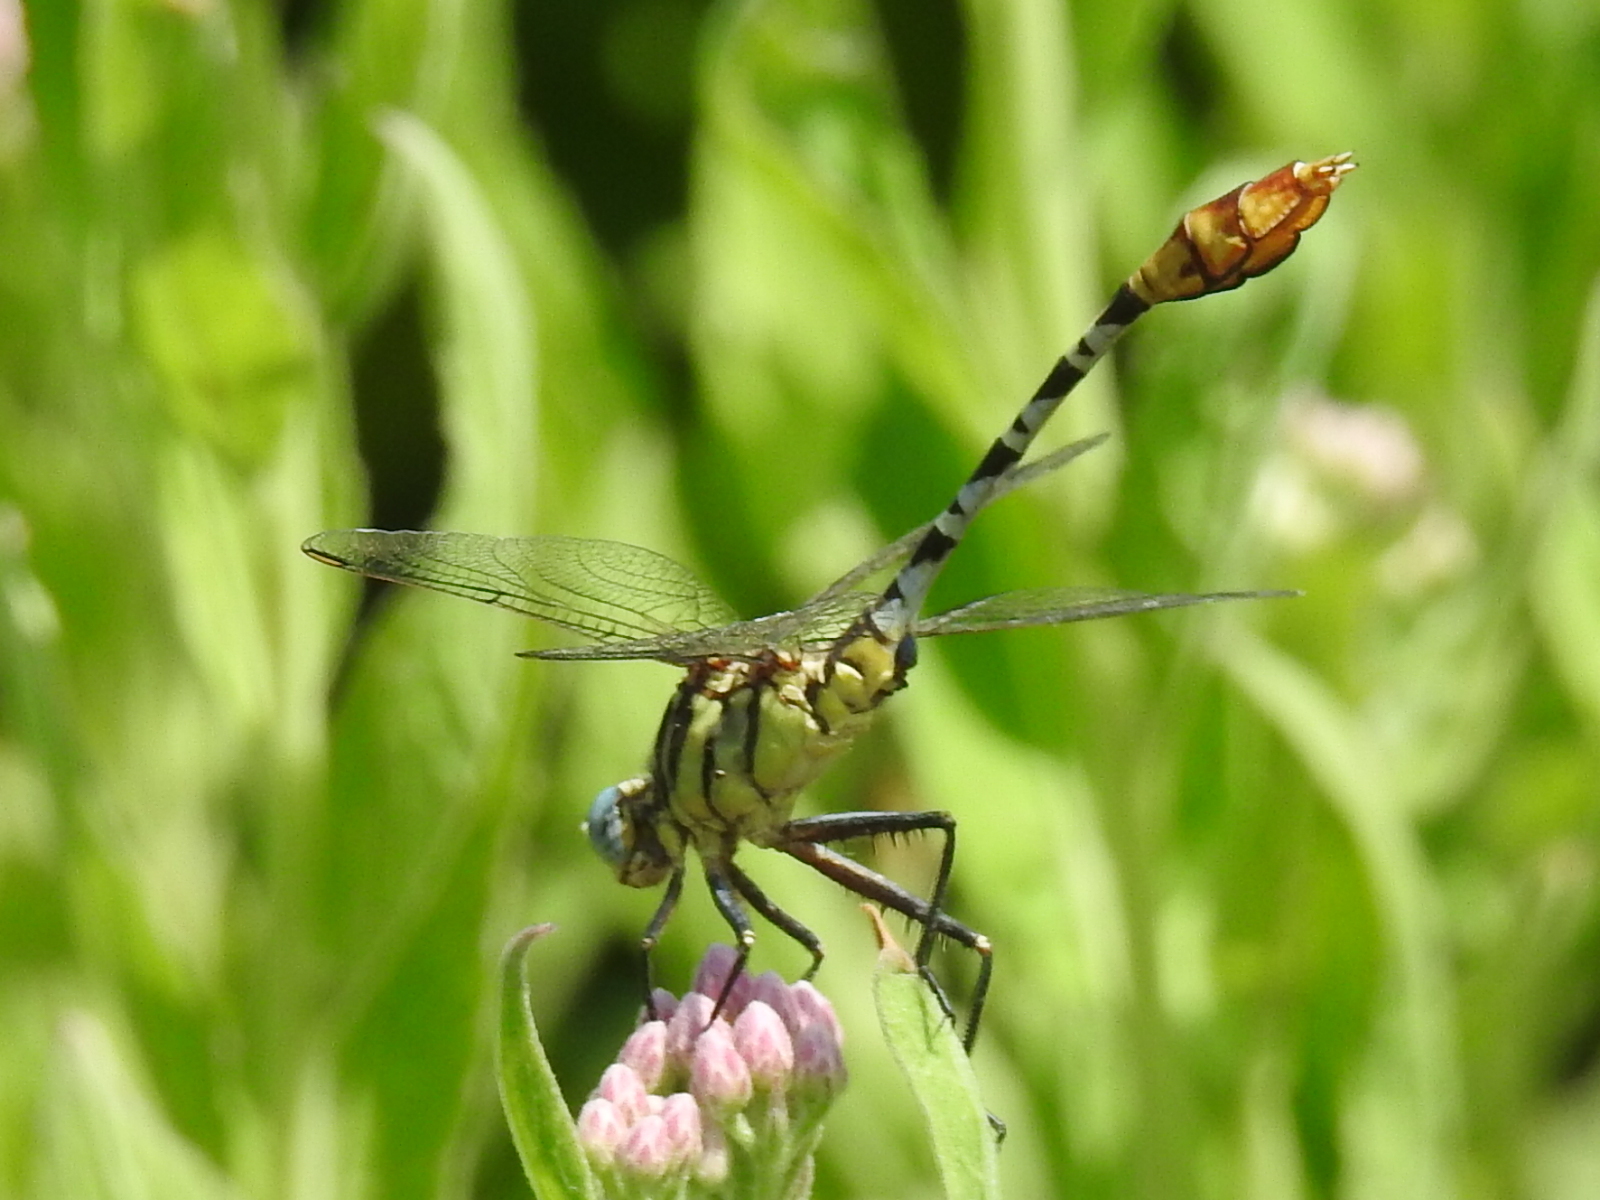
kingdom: Animalia
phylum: Arthropoda
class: Insecta
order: Odonata
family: Gomphidae
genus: Dromogomphus
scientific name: Dromogomphus spoliatus
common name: Flag-tailed spinyleg
